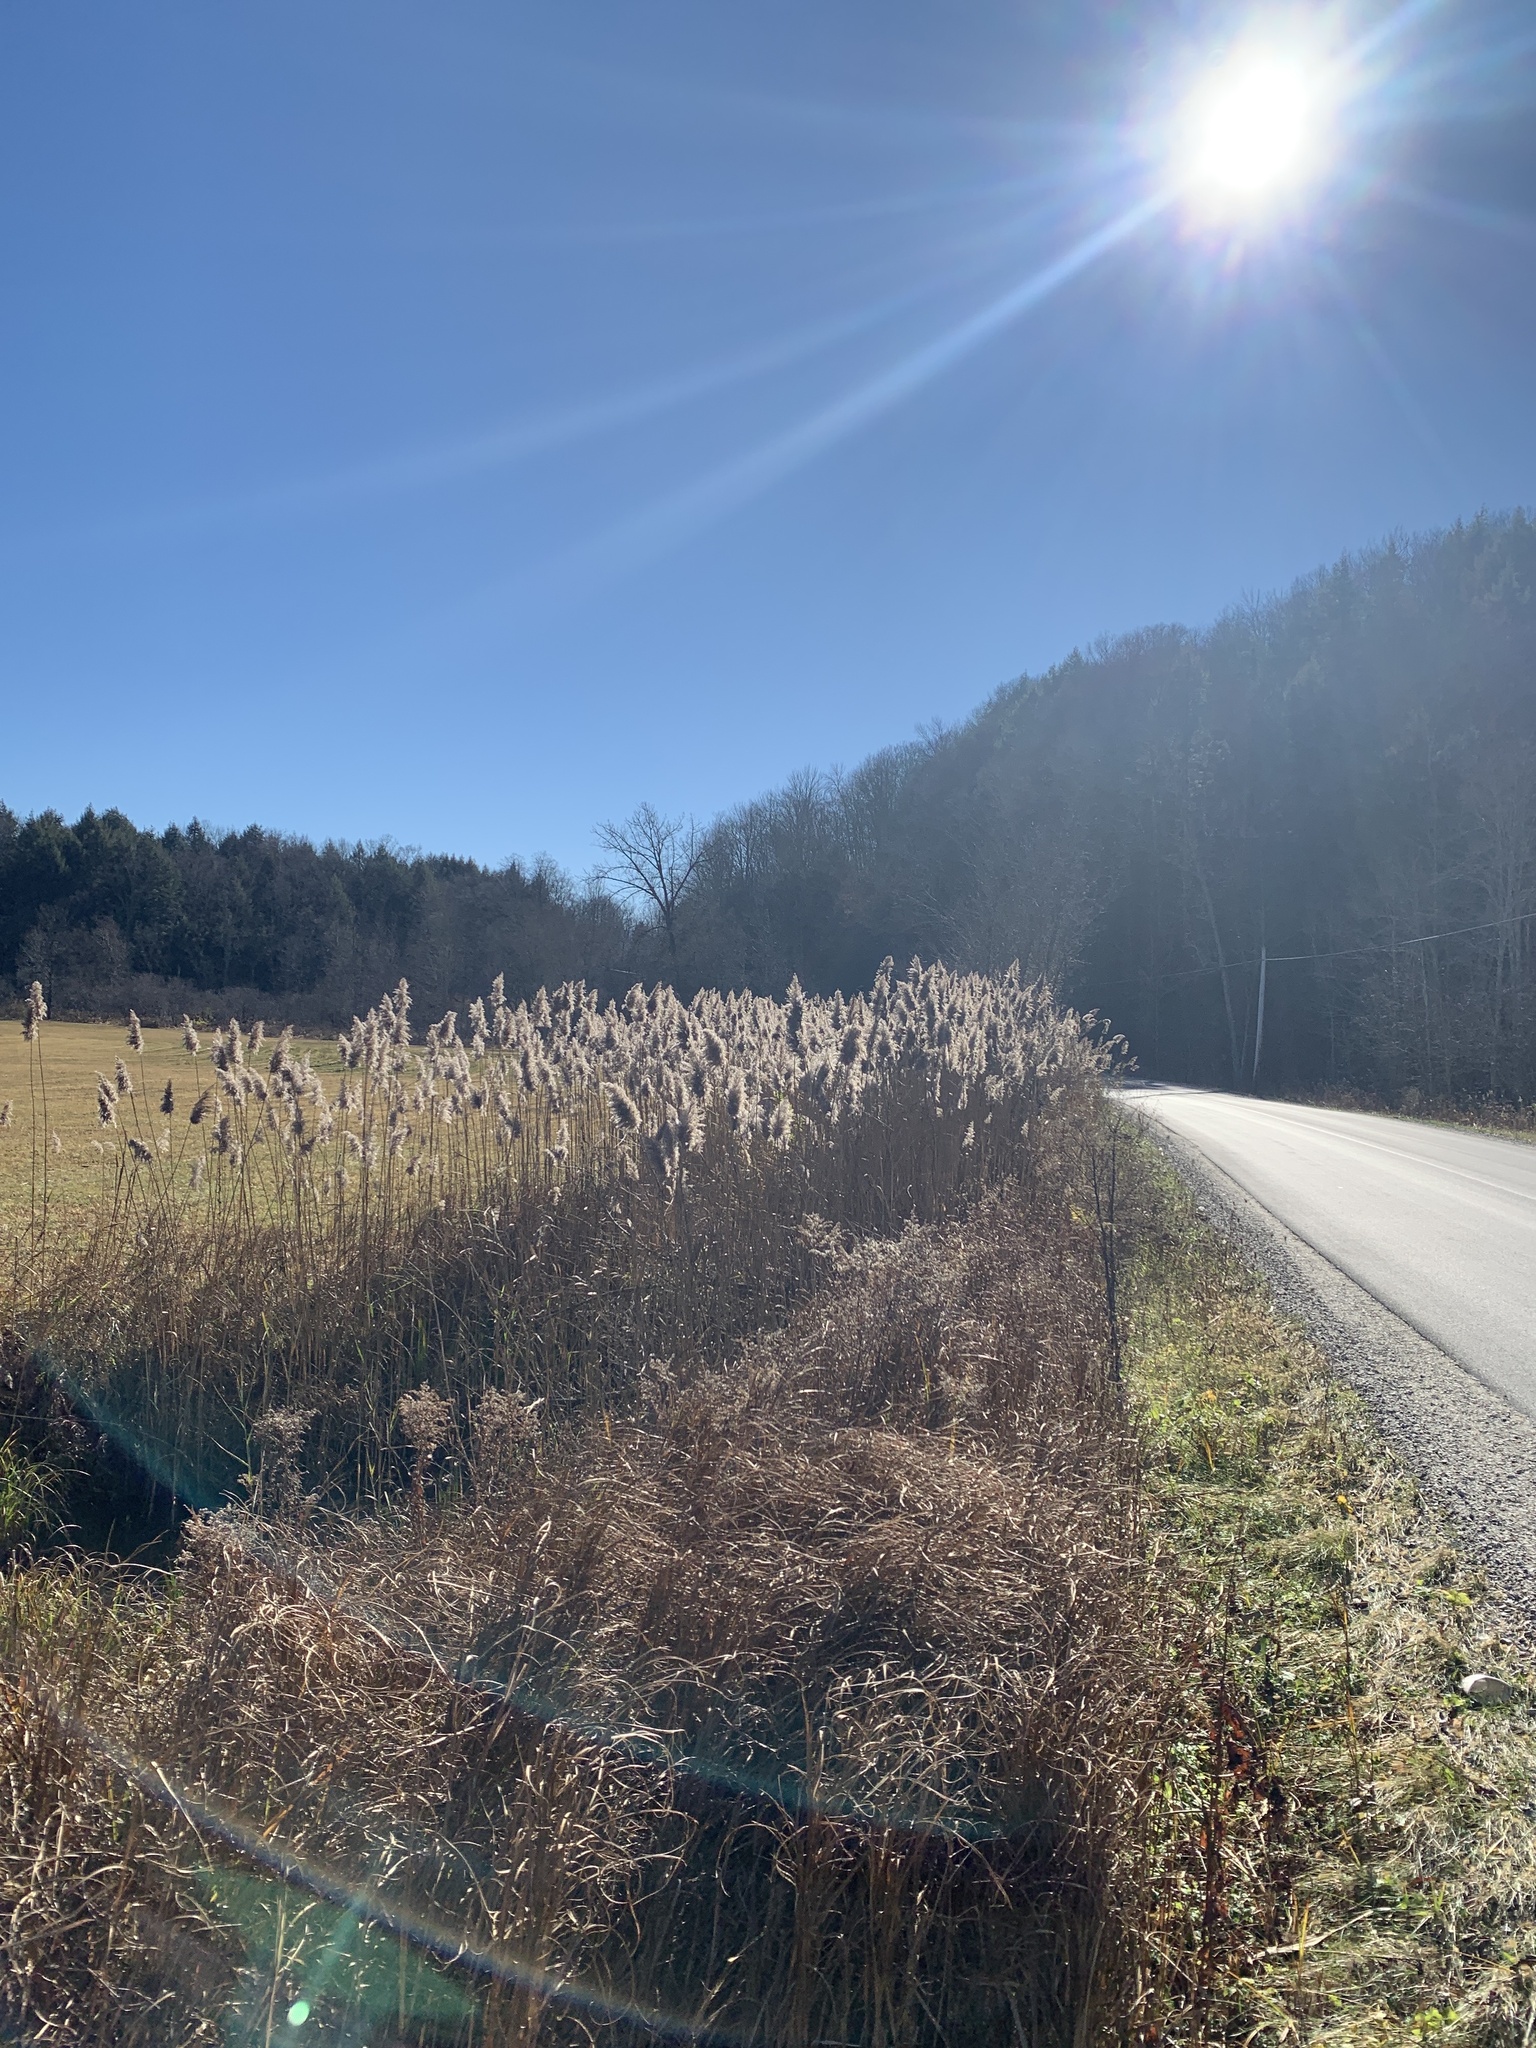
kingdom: Plantae
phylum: Tracheophyta
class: Liliopsida
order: Poales
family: Poaceae
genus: Phragmites
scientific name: Phragmites australis
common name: Common reed
